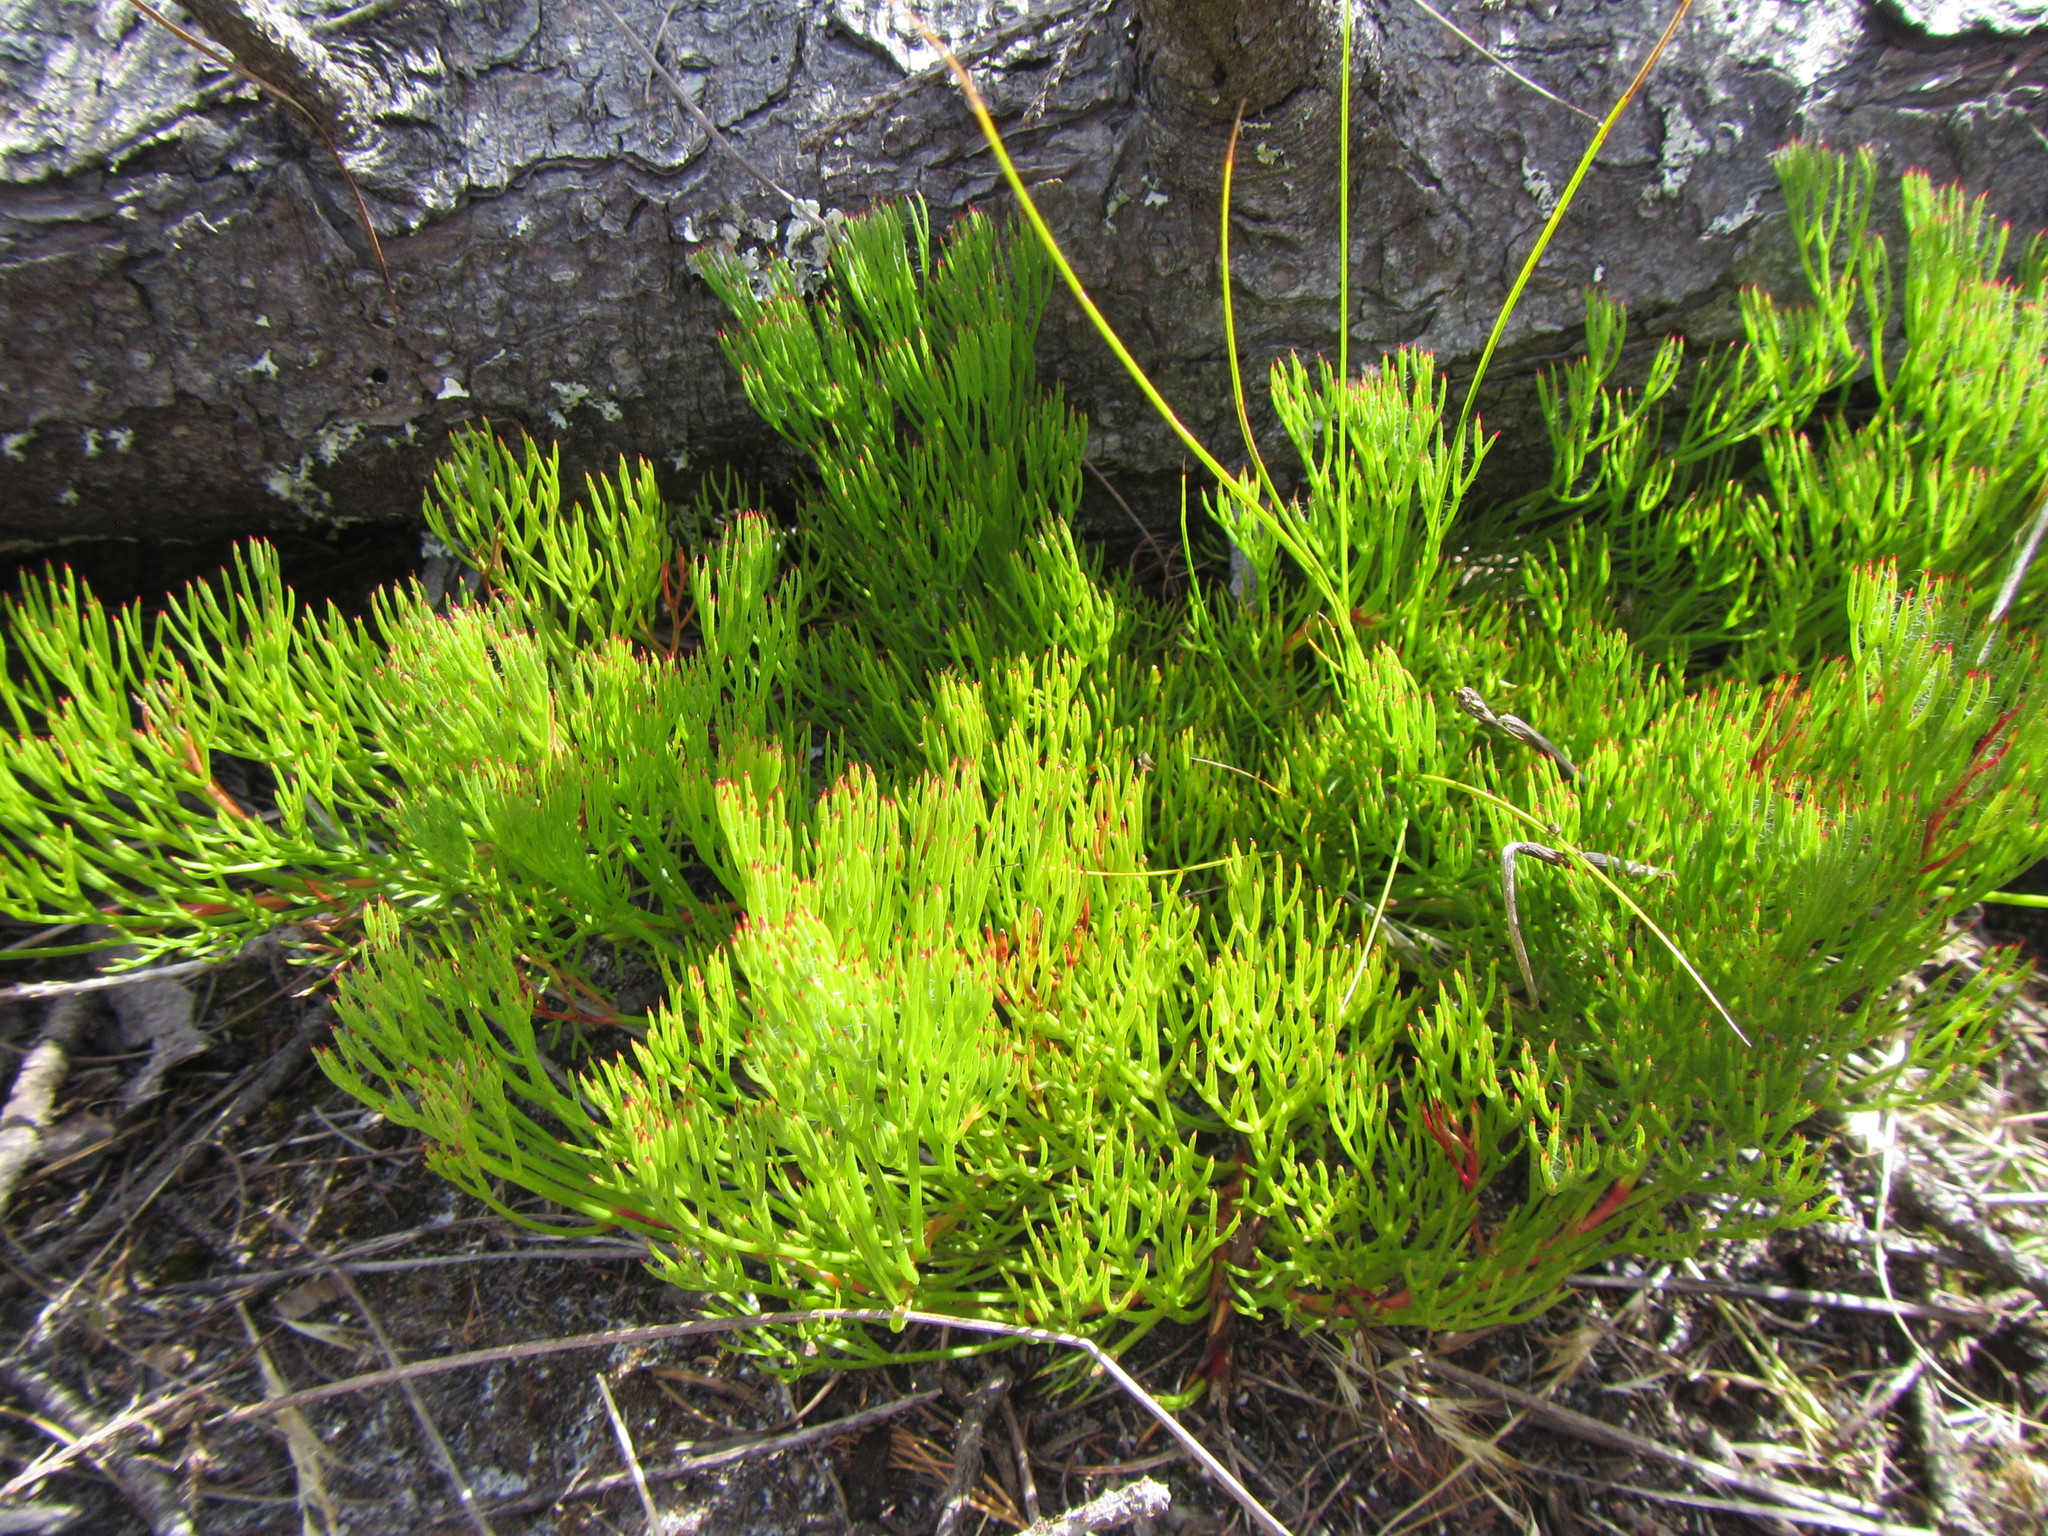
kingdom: Plantae
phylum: Tracheophyta
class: Magnoliopsida
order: Proteales
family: Proteaceae
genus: Serruria
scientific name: Serruria rubricaulis
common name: Red-stem spiderhead
